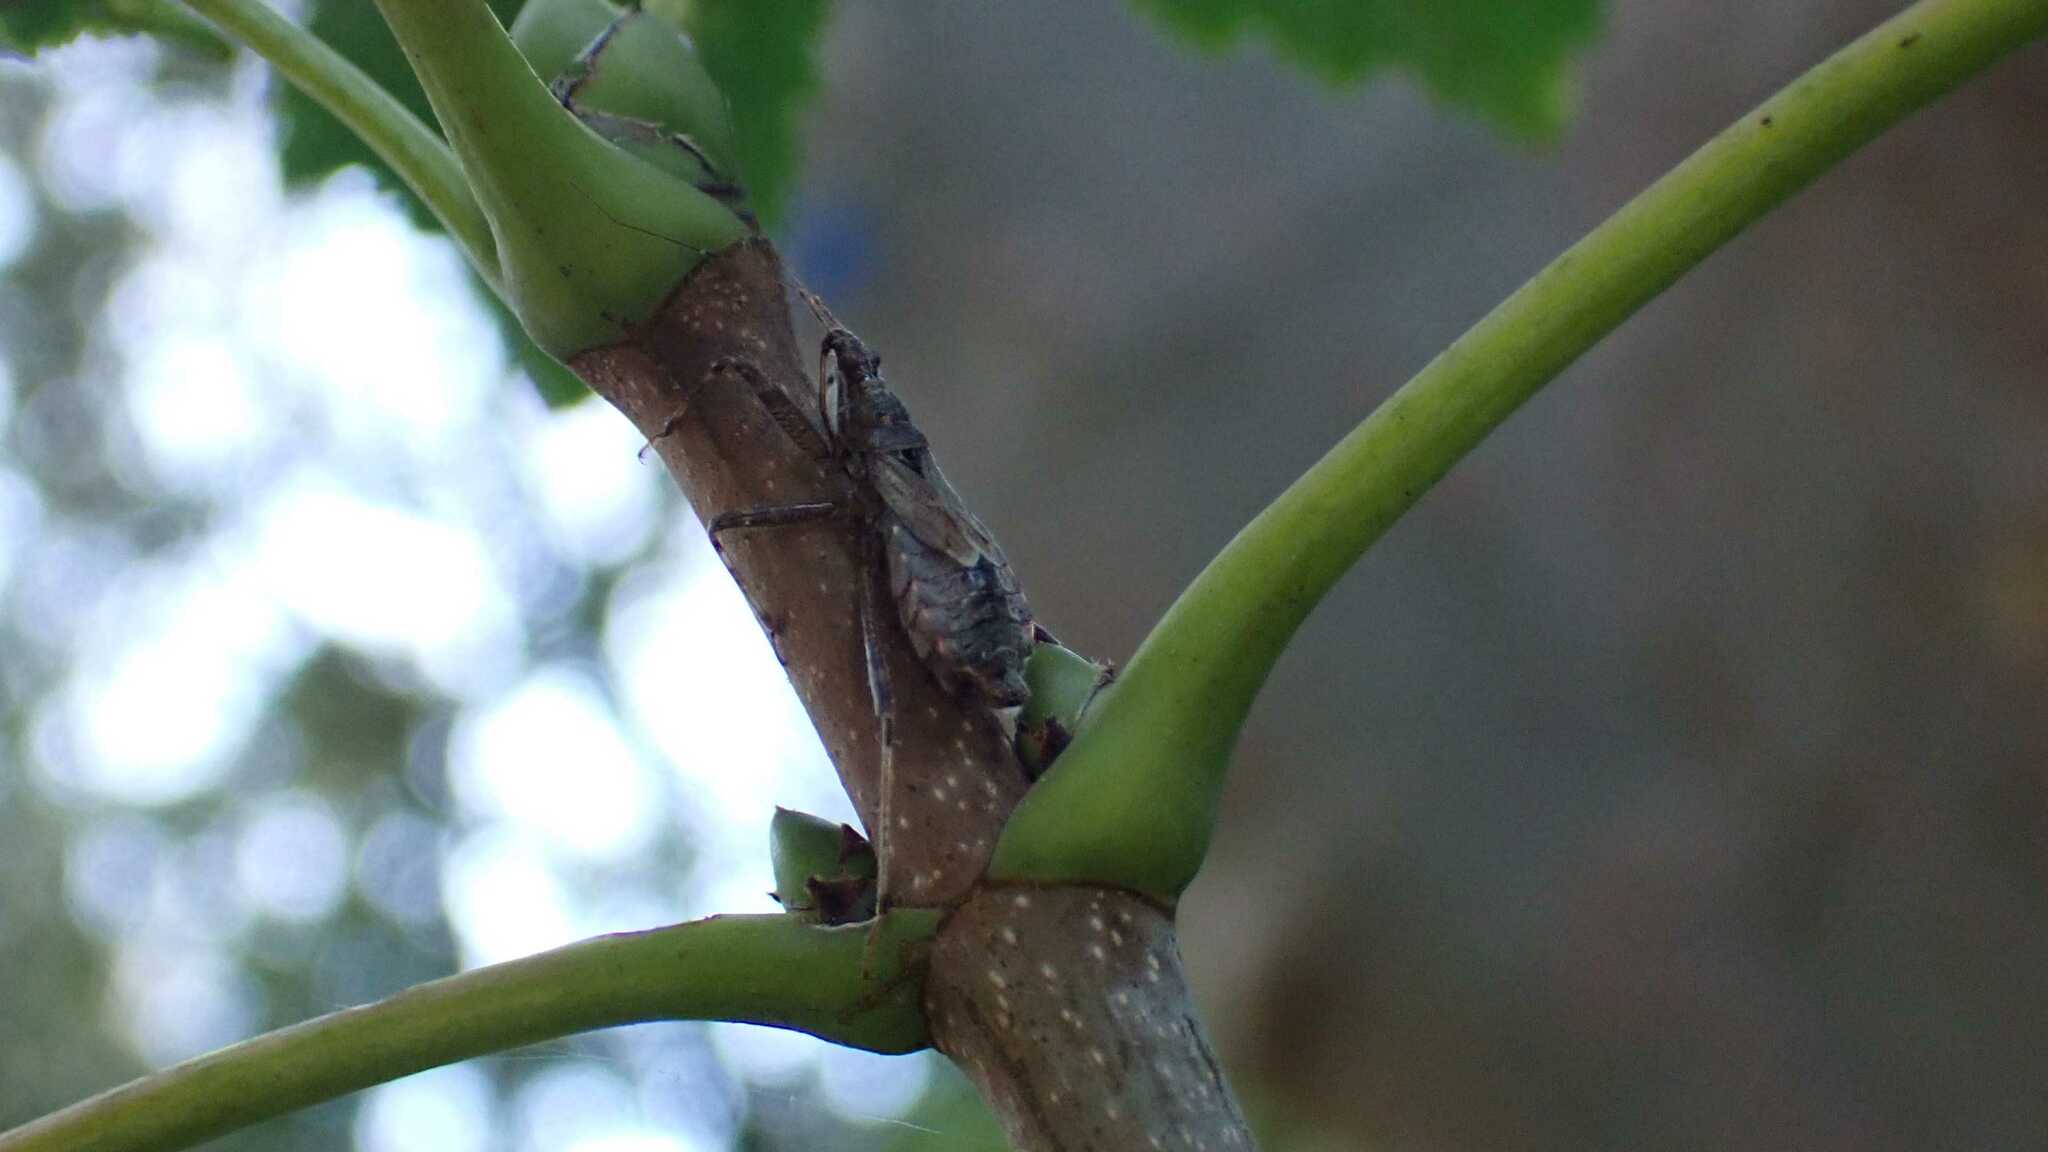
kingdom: Animalia
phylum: Arthropoda
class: Insecta
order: Hemiptera
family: Nabidae
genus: Himacerus
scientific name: Himacerus apterus
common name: Tree damsel bug
